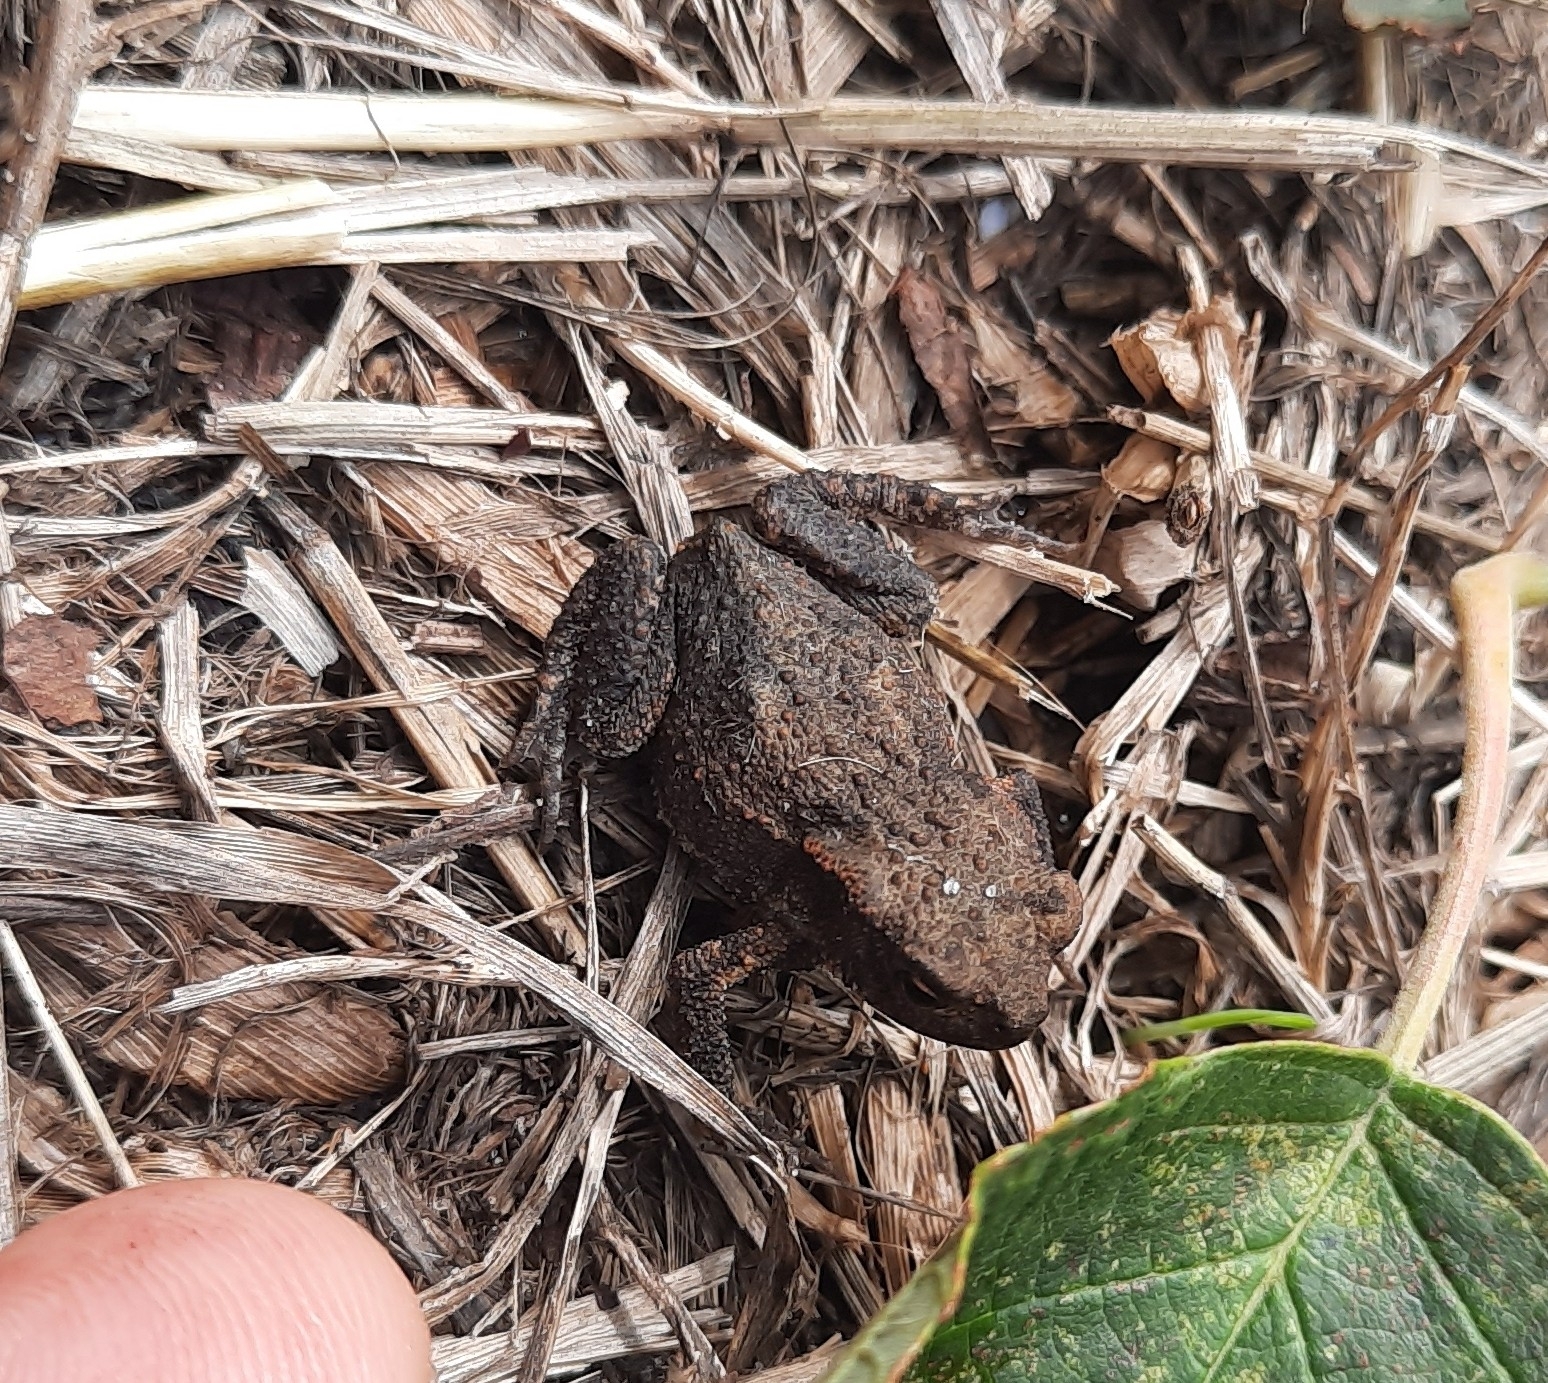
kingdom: Animalia
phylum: Chordata
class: Amphibia
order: Anura
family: Bufonidae
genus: Bufo
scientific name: Bufo bufo
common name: Common toad
